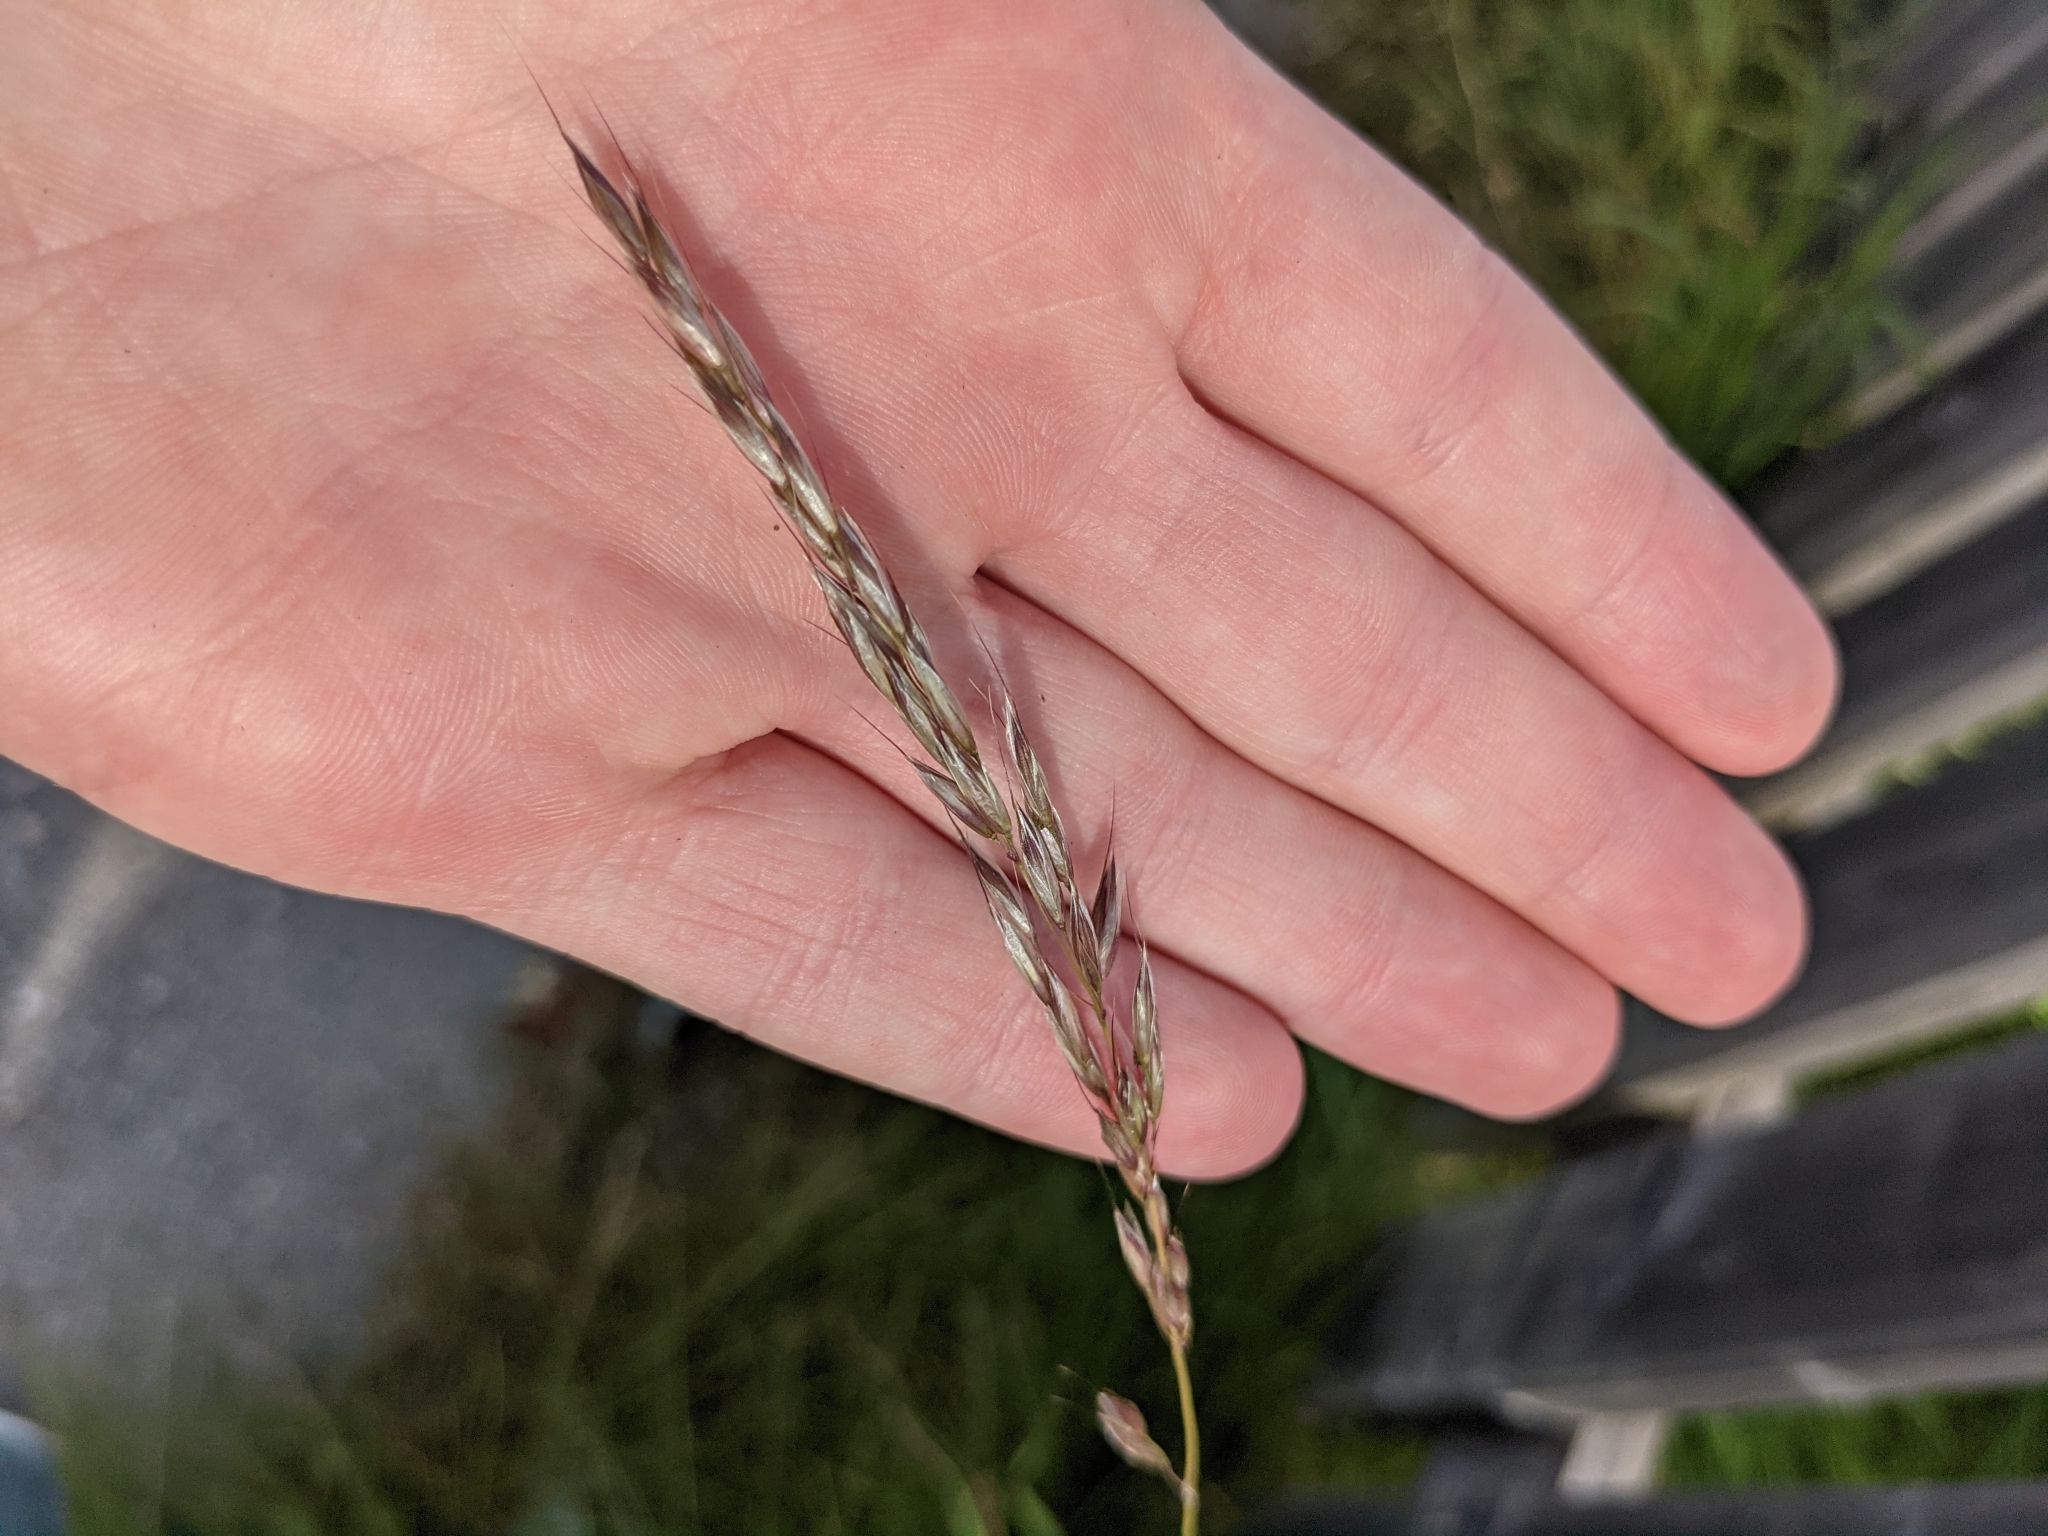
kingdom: Plantae
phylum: Tracheophyta
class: Liliopsida
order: Poales
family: Poaceae
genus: Arrhenatherum
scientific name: Arrhenatherum elatius
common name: Tall oatgrass
